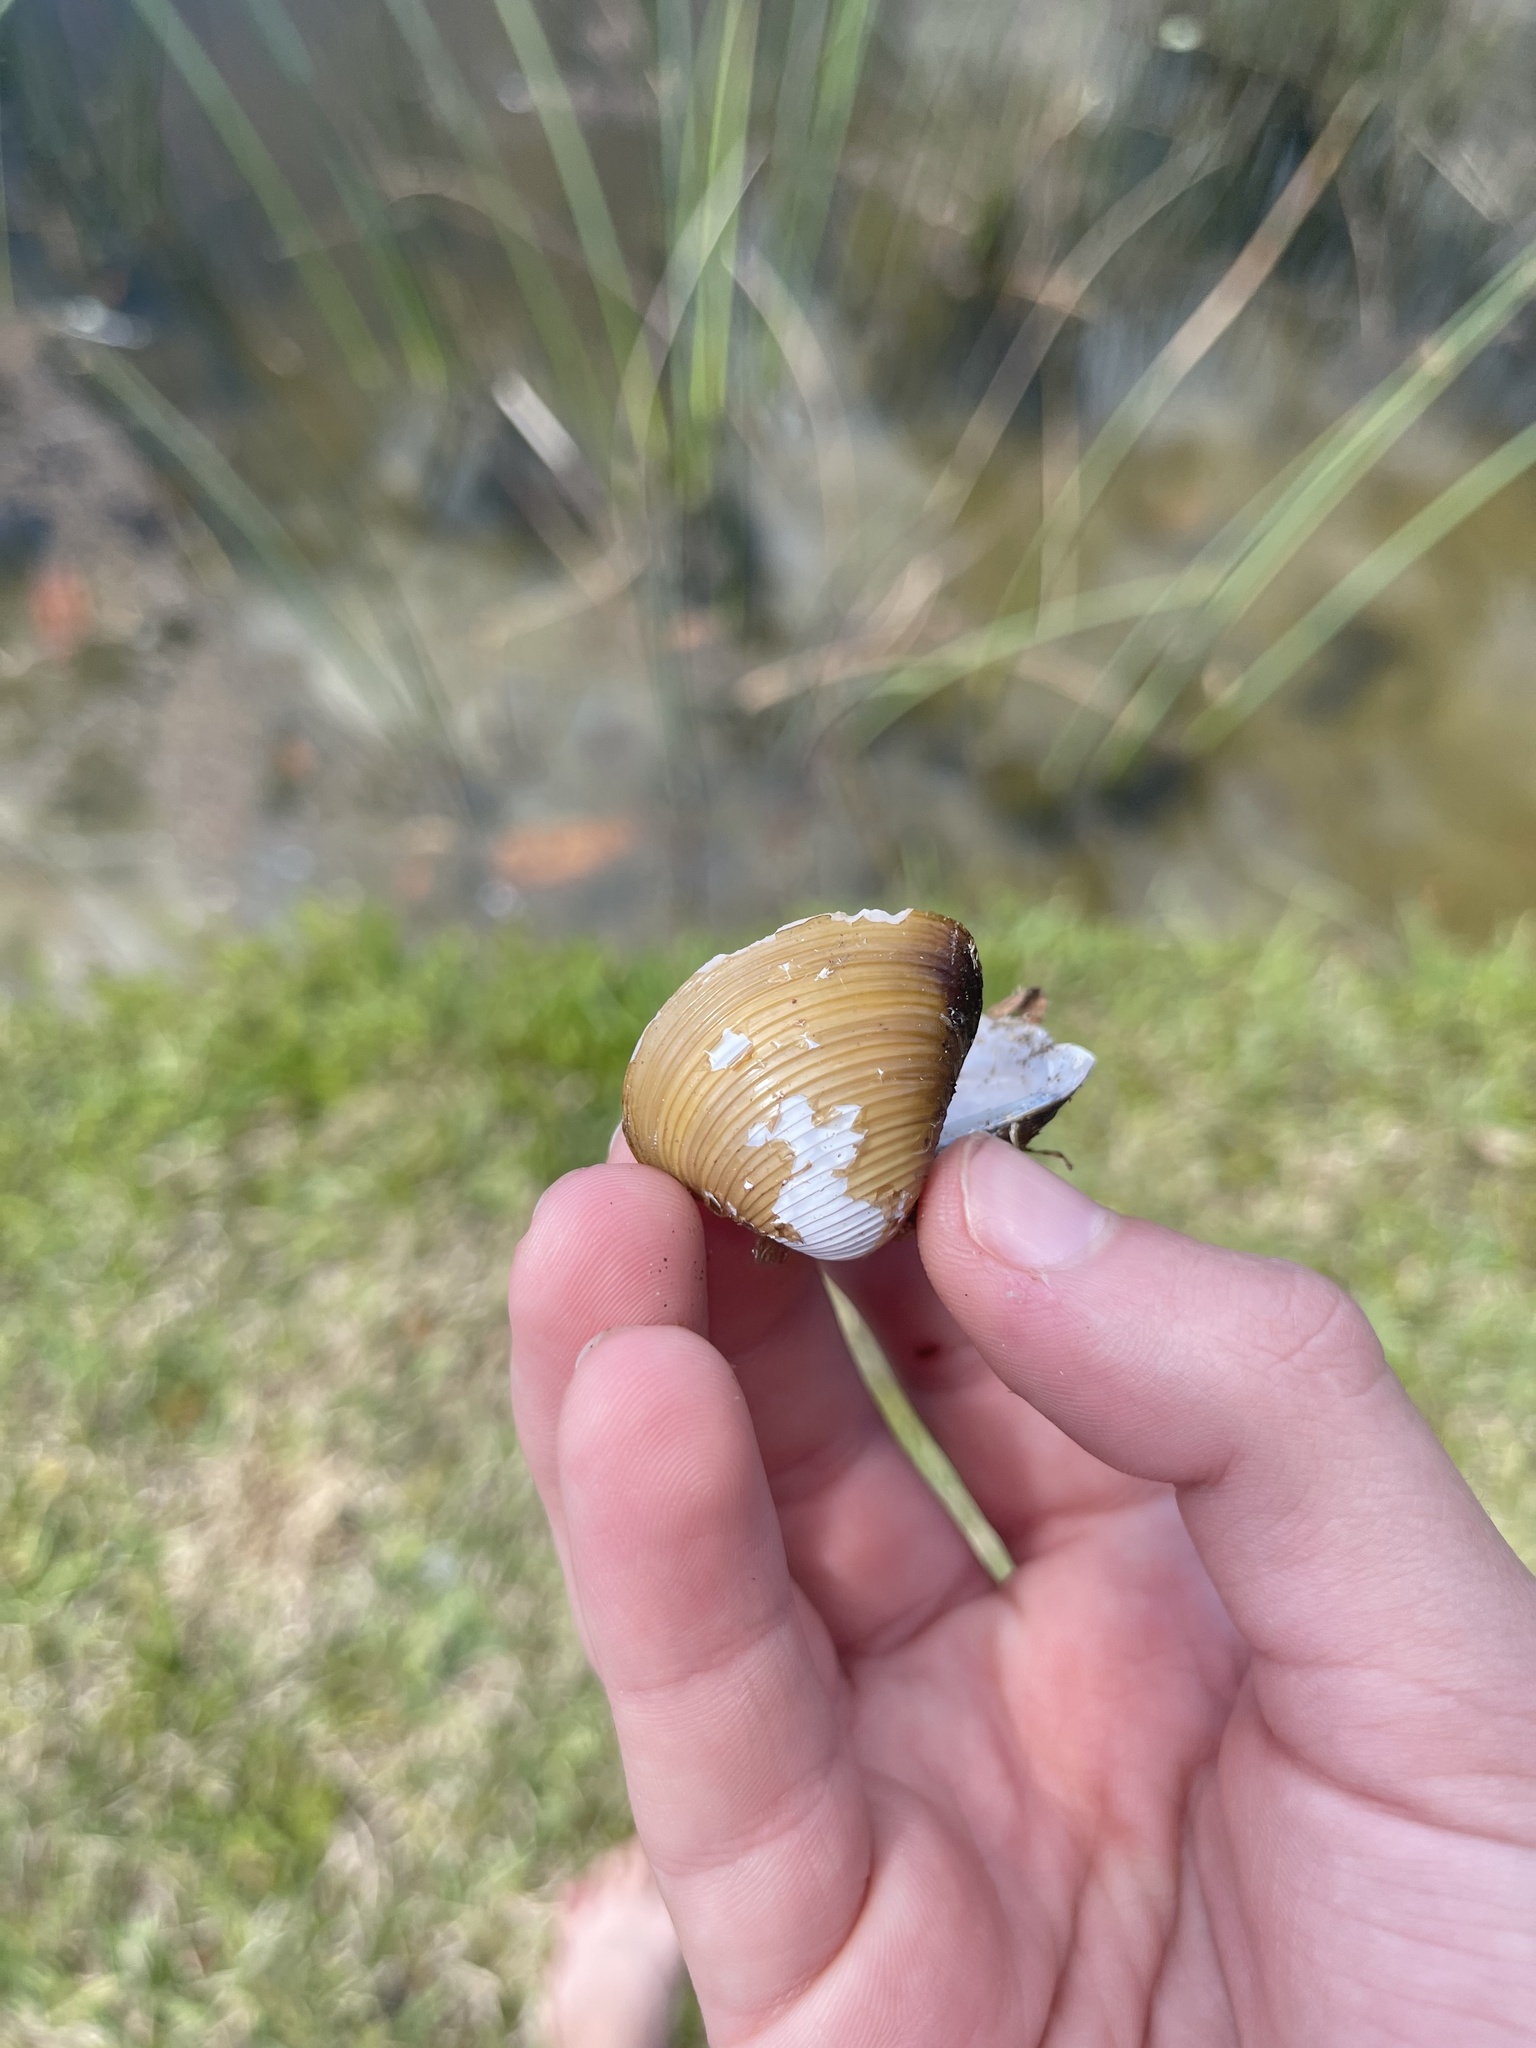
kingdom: Animalia
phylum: Mollusca
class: Bivalvia
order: Venerida
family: Cyrenidae
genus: Corbicula
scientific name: Corbicula fluminea
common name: Asian clam
